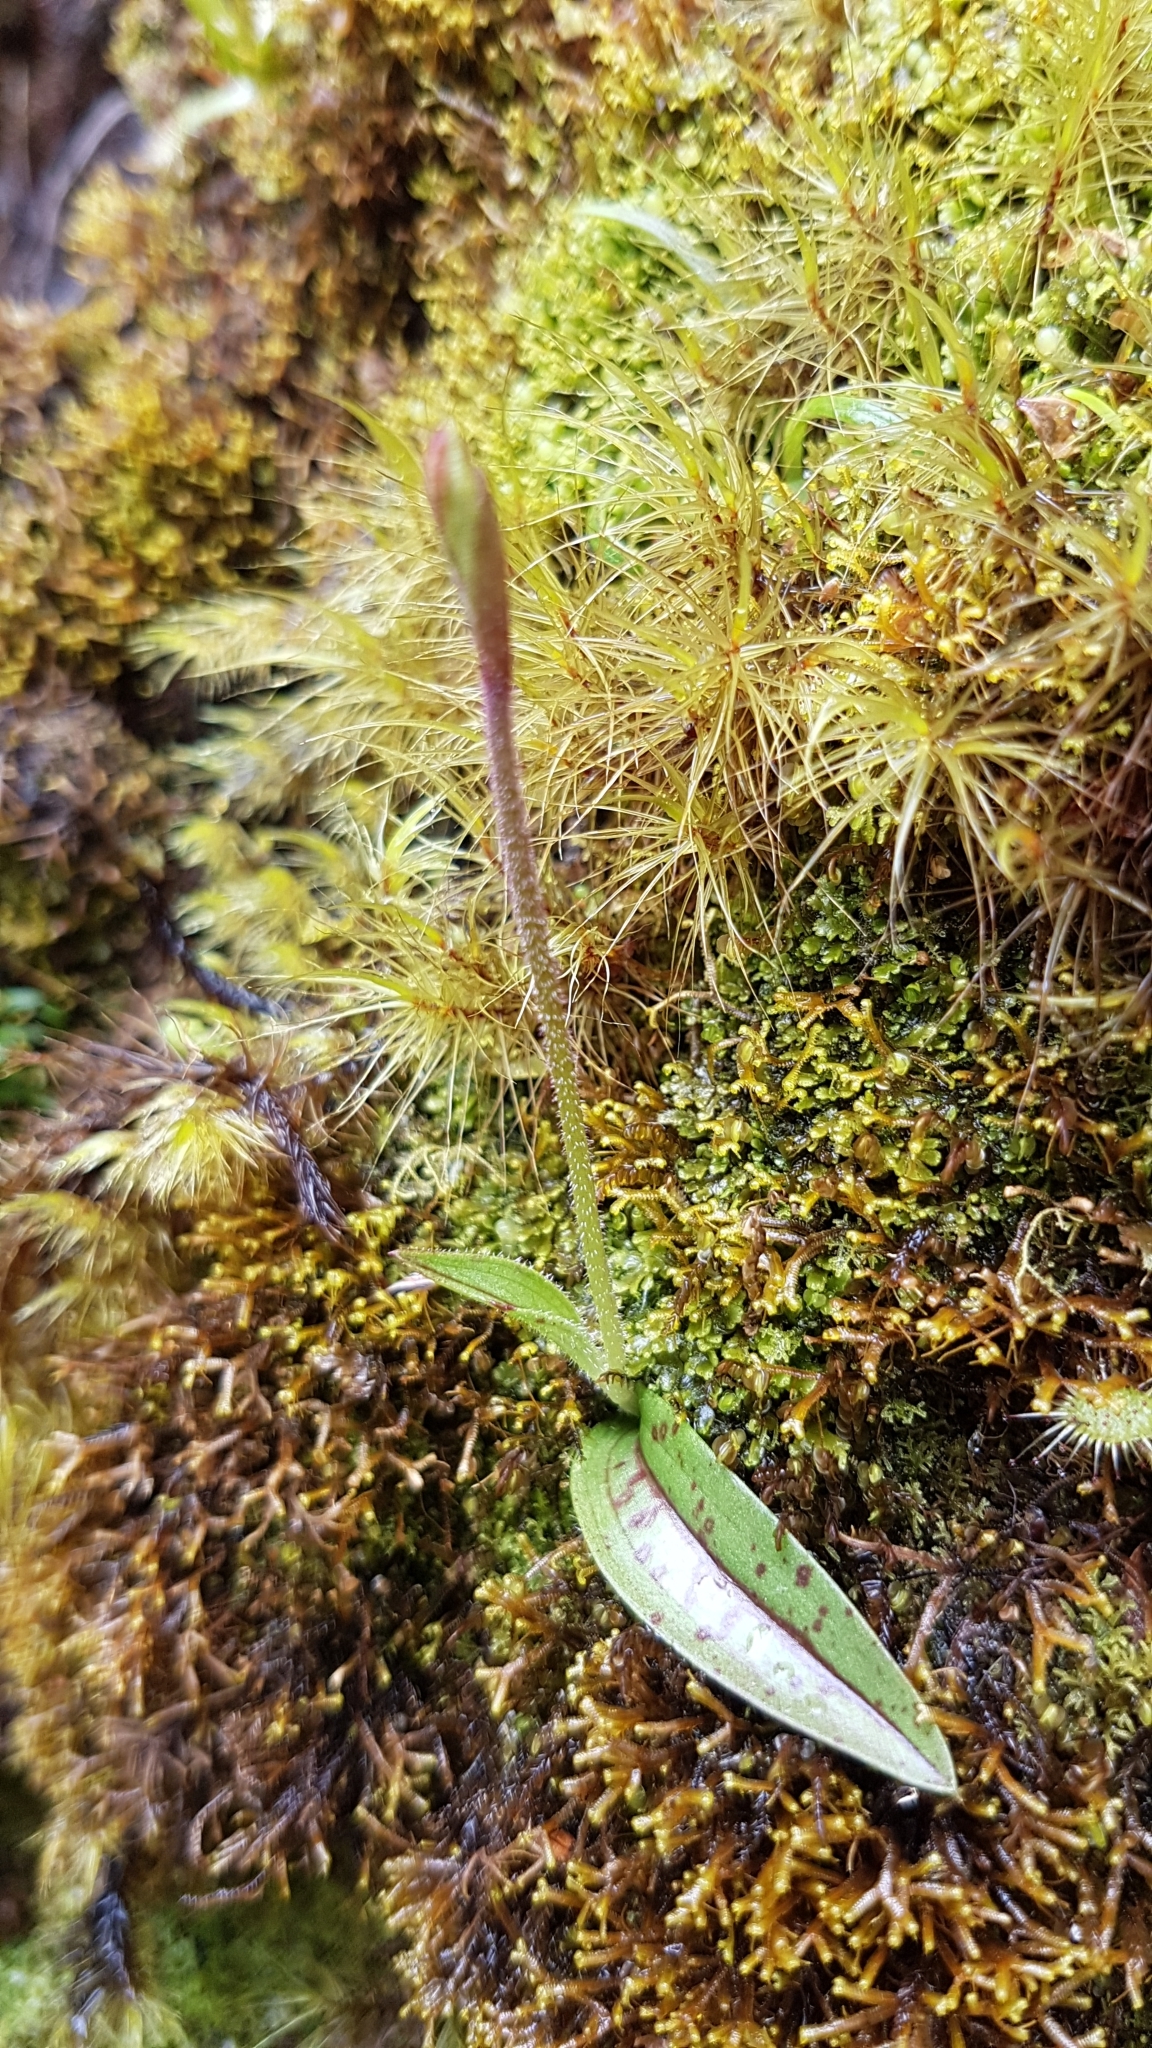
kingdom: Plantae
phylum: Tracheophyta
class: Liliopsida
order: Asparagales
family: Orchidaceae
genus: Aporostylis
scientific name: Aporostylis bifolia
